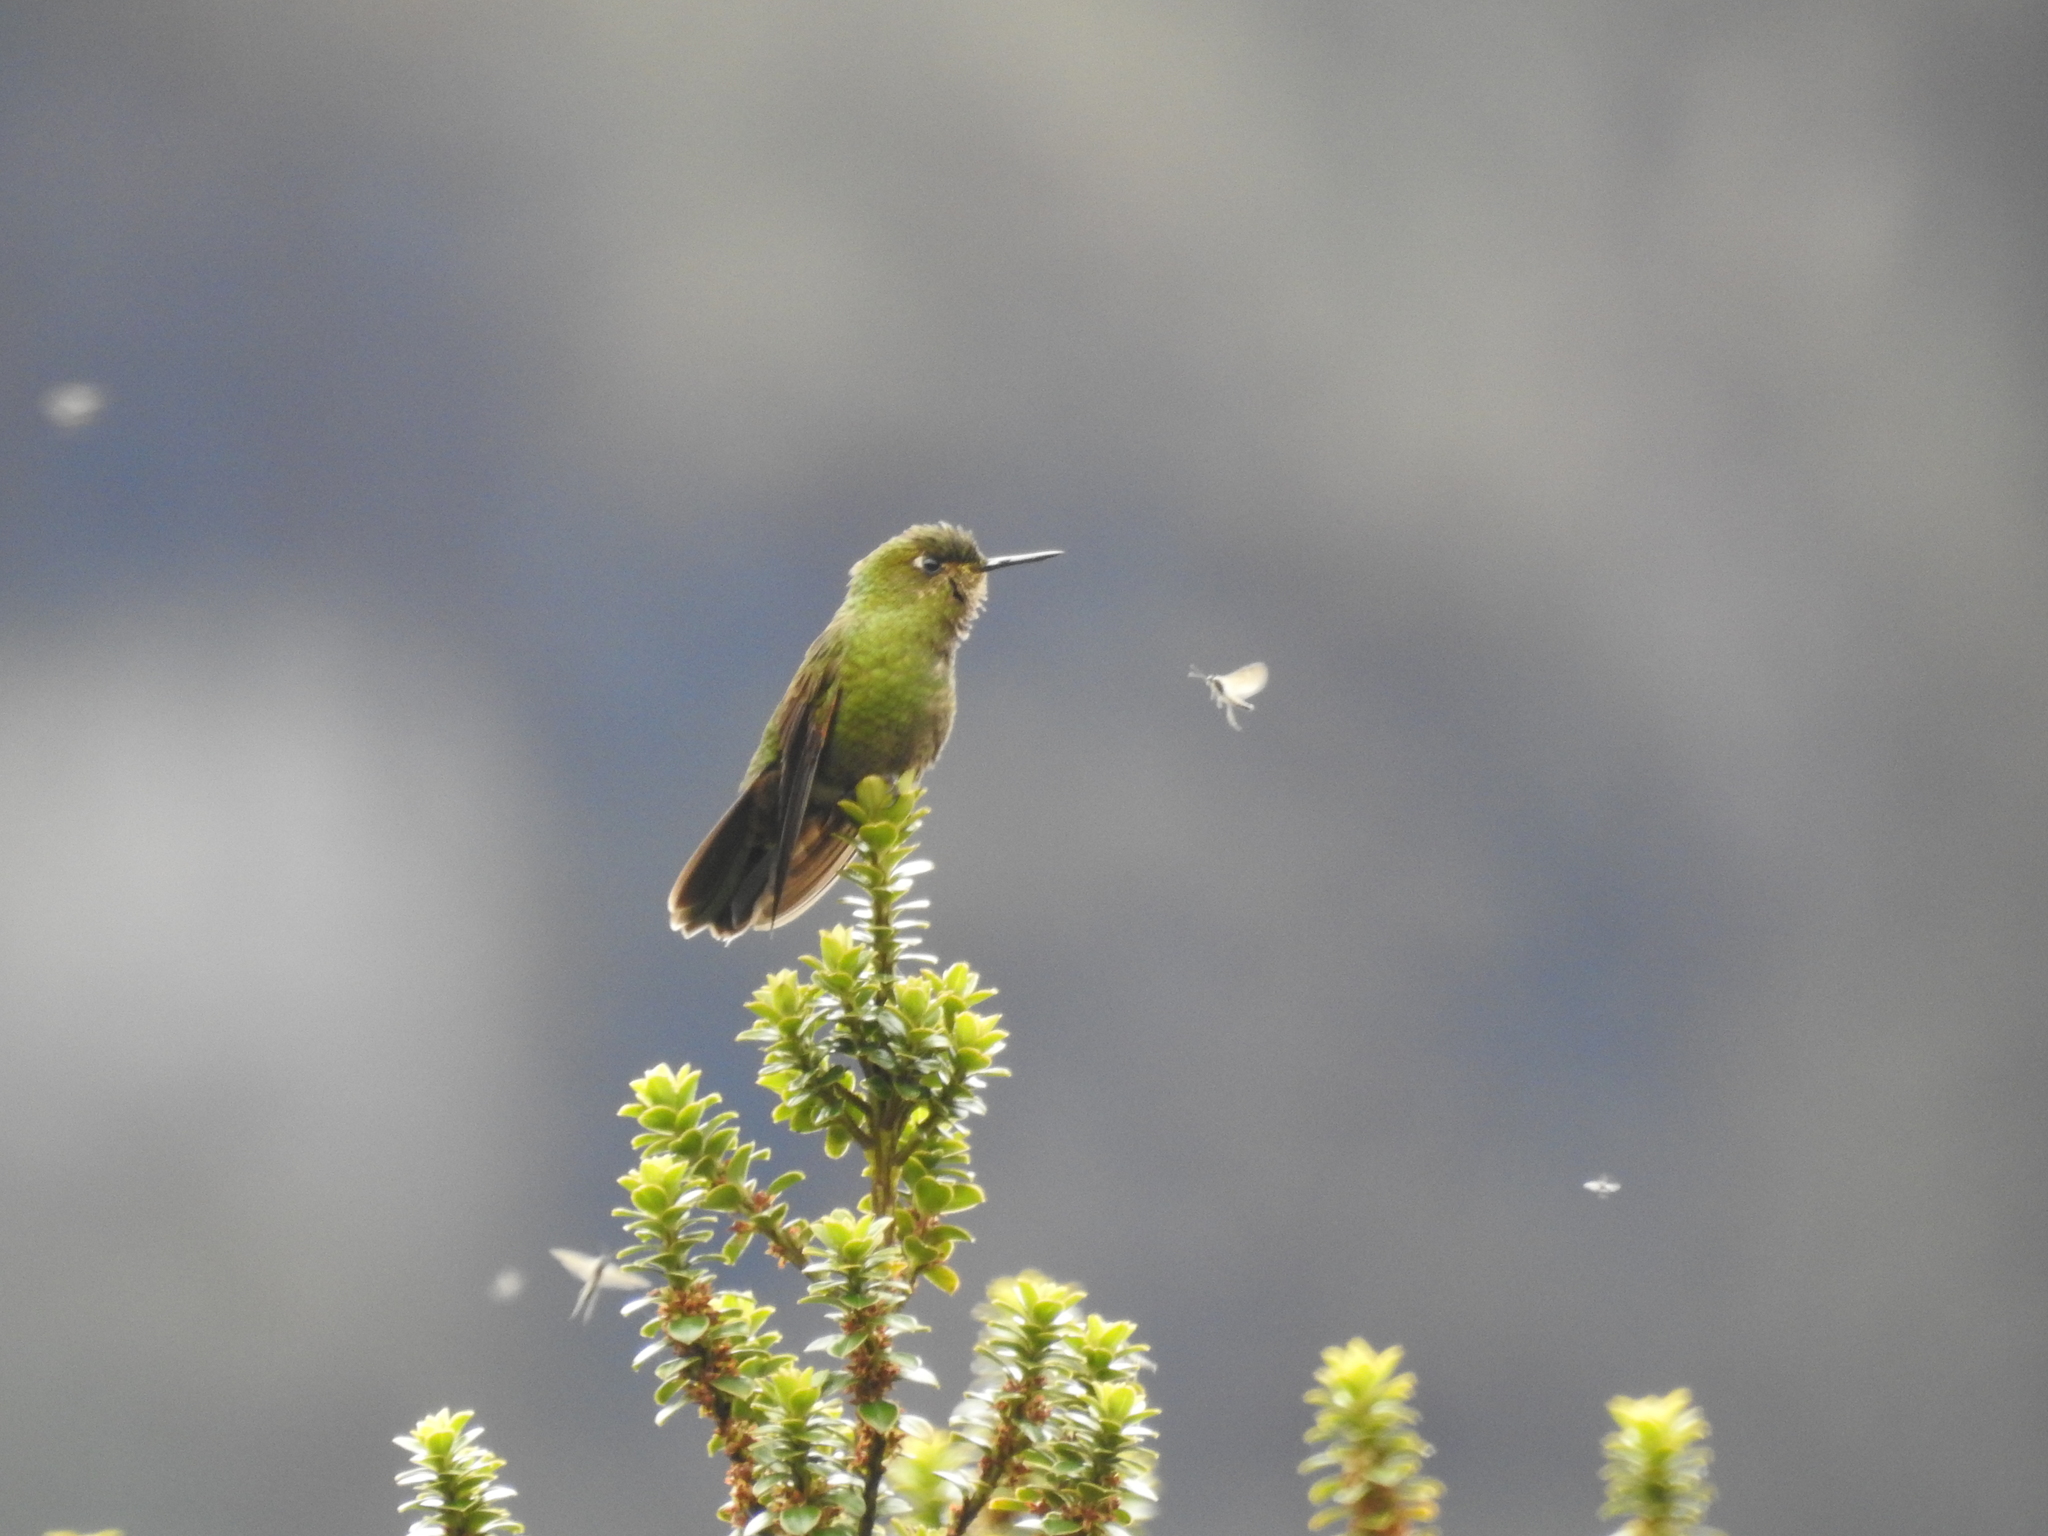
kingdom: Animalia
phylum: Chordata
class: Aves
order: Apodiformes
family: Trochilidae
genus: Metallura
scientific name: Metallura williami
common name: Viridian metaltail
